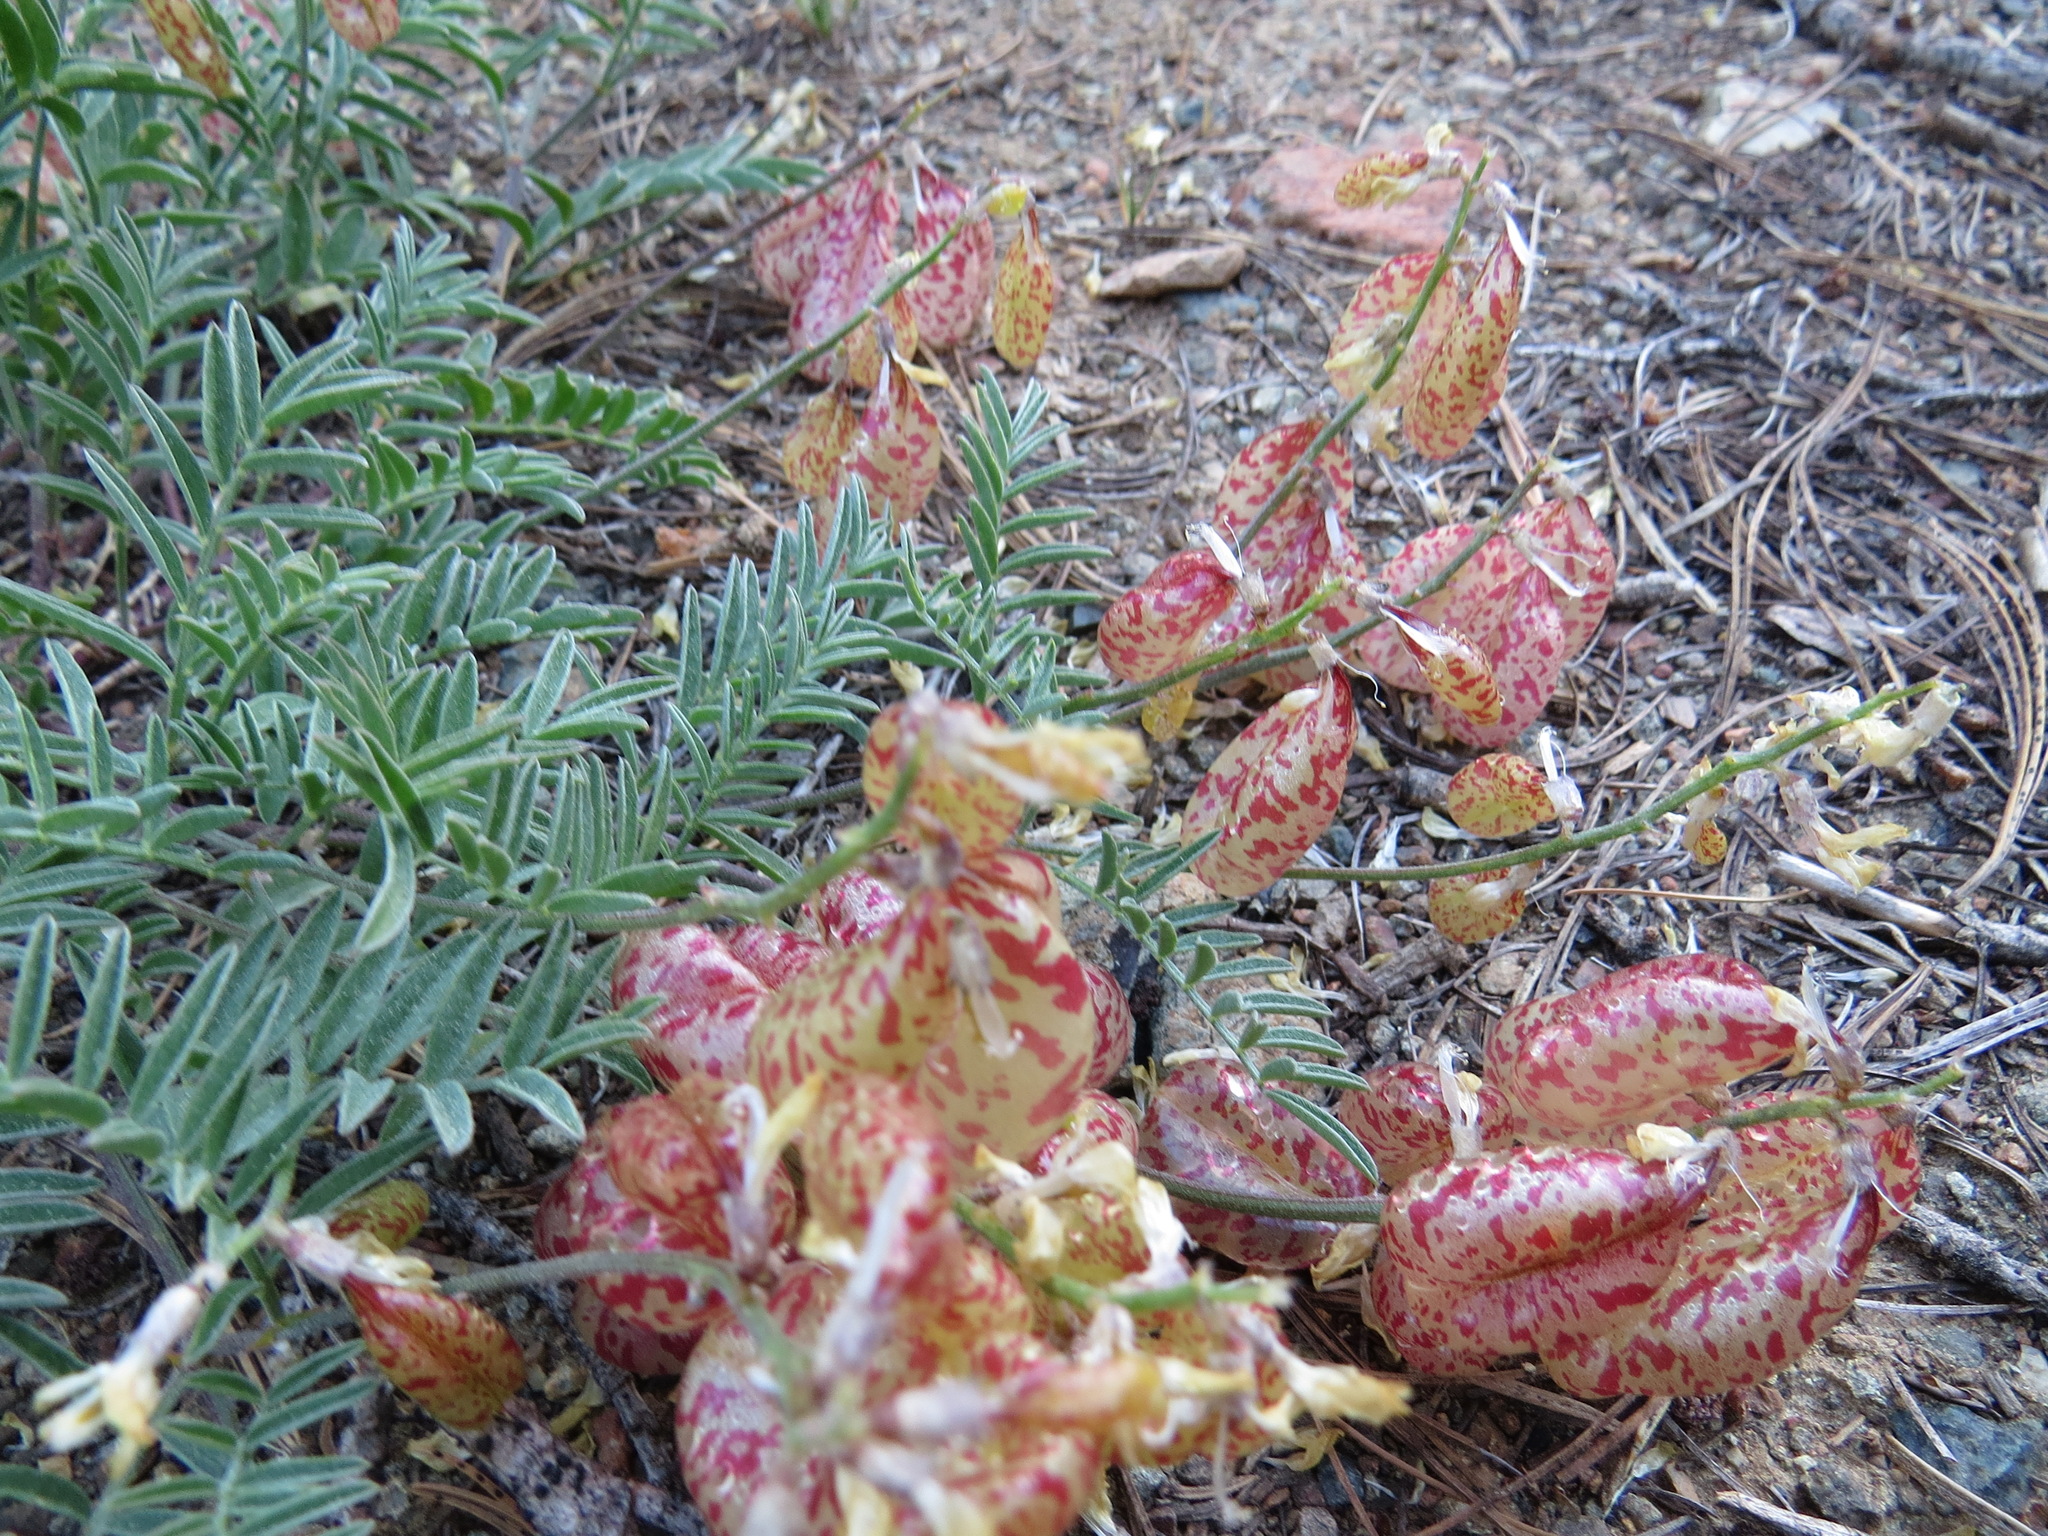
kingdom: Plantae
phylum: Tracheophyta
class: Magnoliopsida
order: Fabales
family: Fabaceae
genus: Astragalus
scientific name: Astragalus whitneyi
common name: Balloonpod milkvetch
